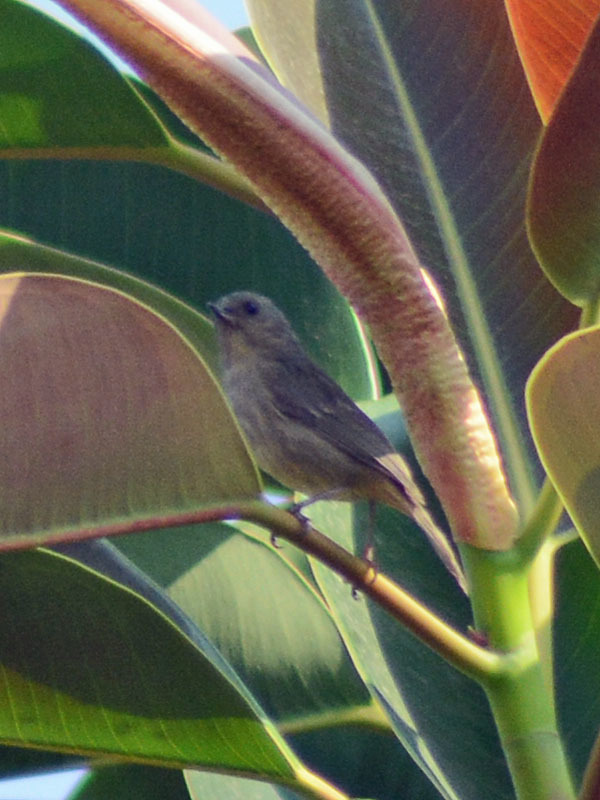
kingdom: Animalia
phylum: Chordata
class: Aves
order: Passeriformes
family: Thraupidae
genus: Diglossa
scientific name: Diglossa baritula
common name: Cinnamon-bellied flowerpiercer
